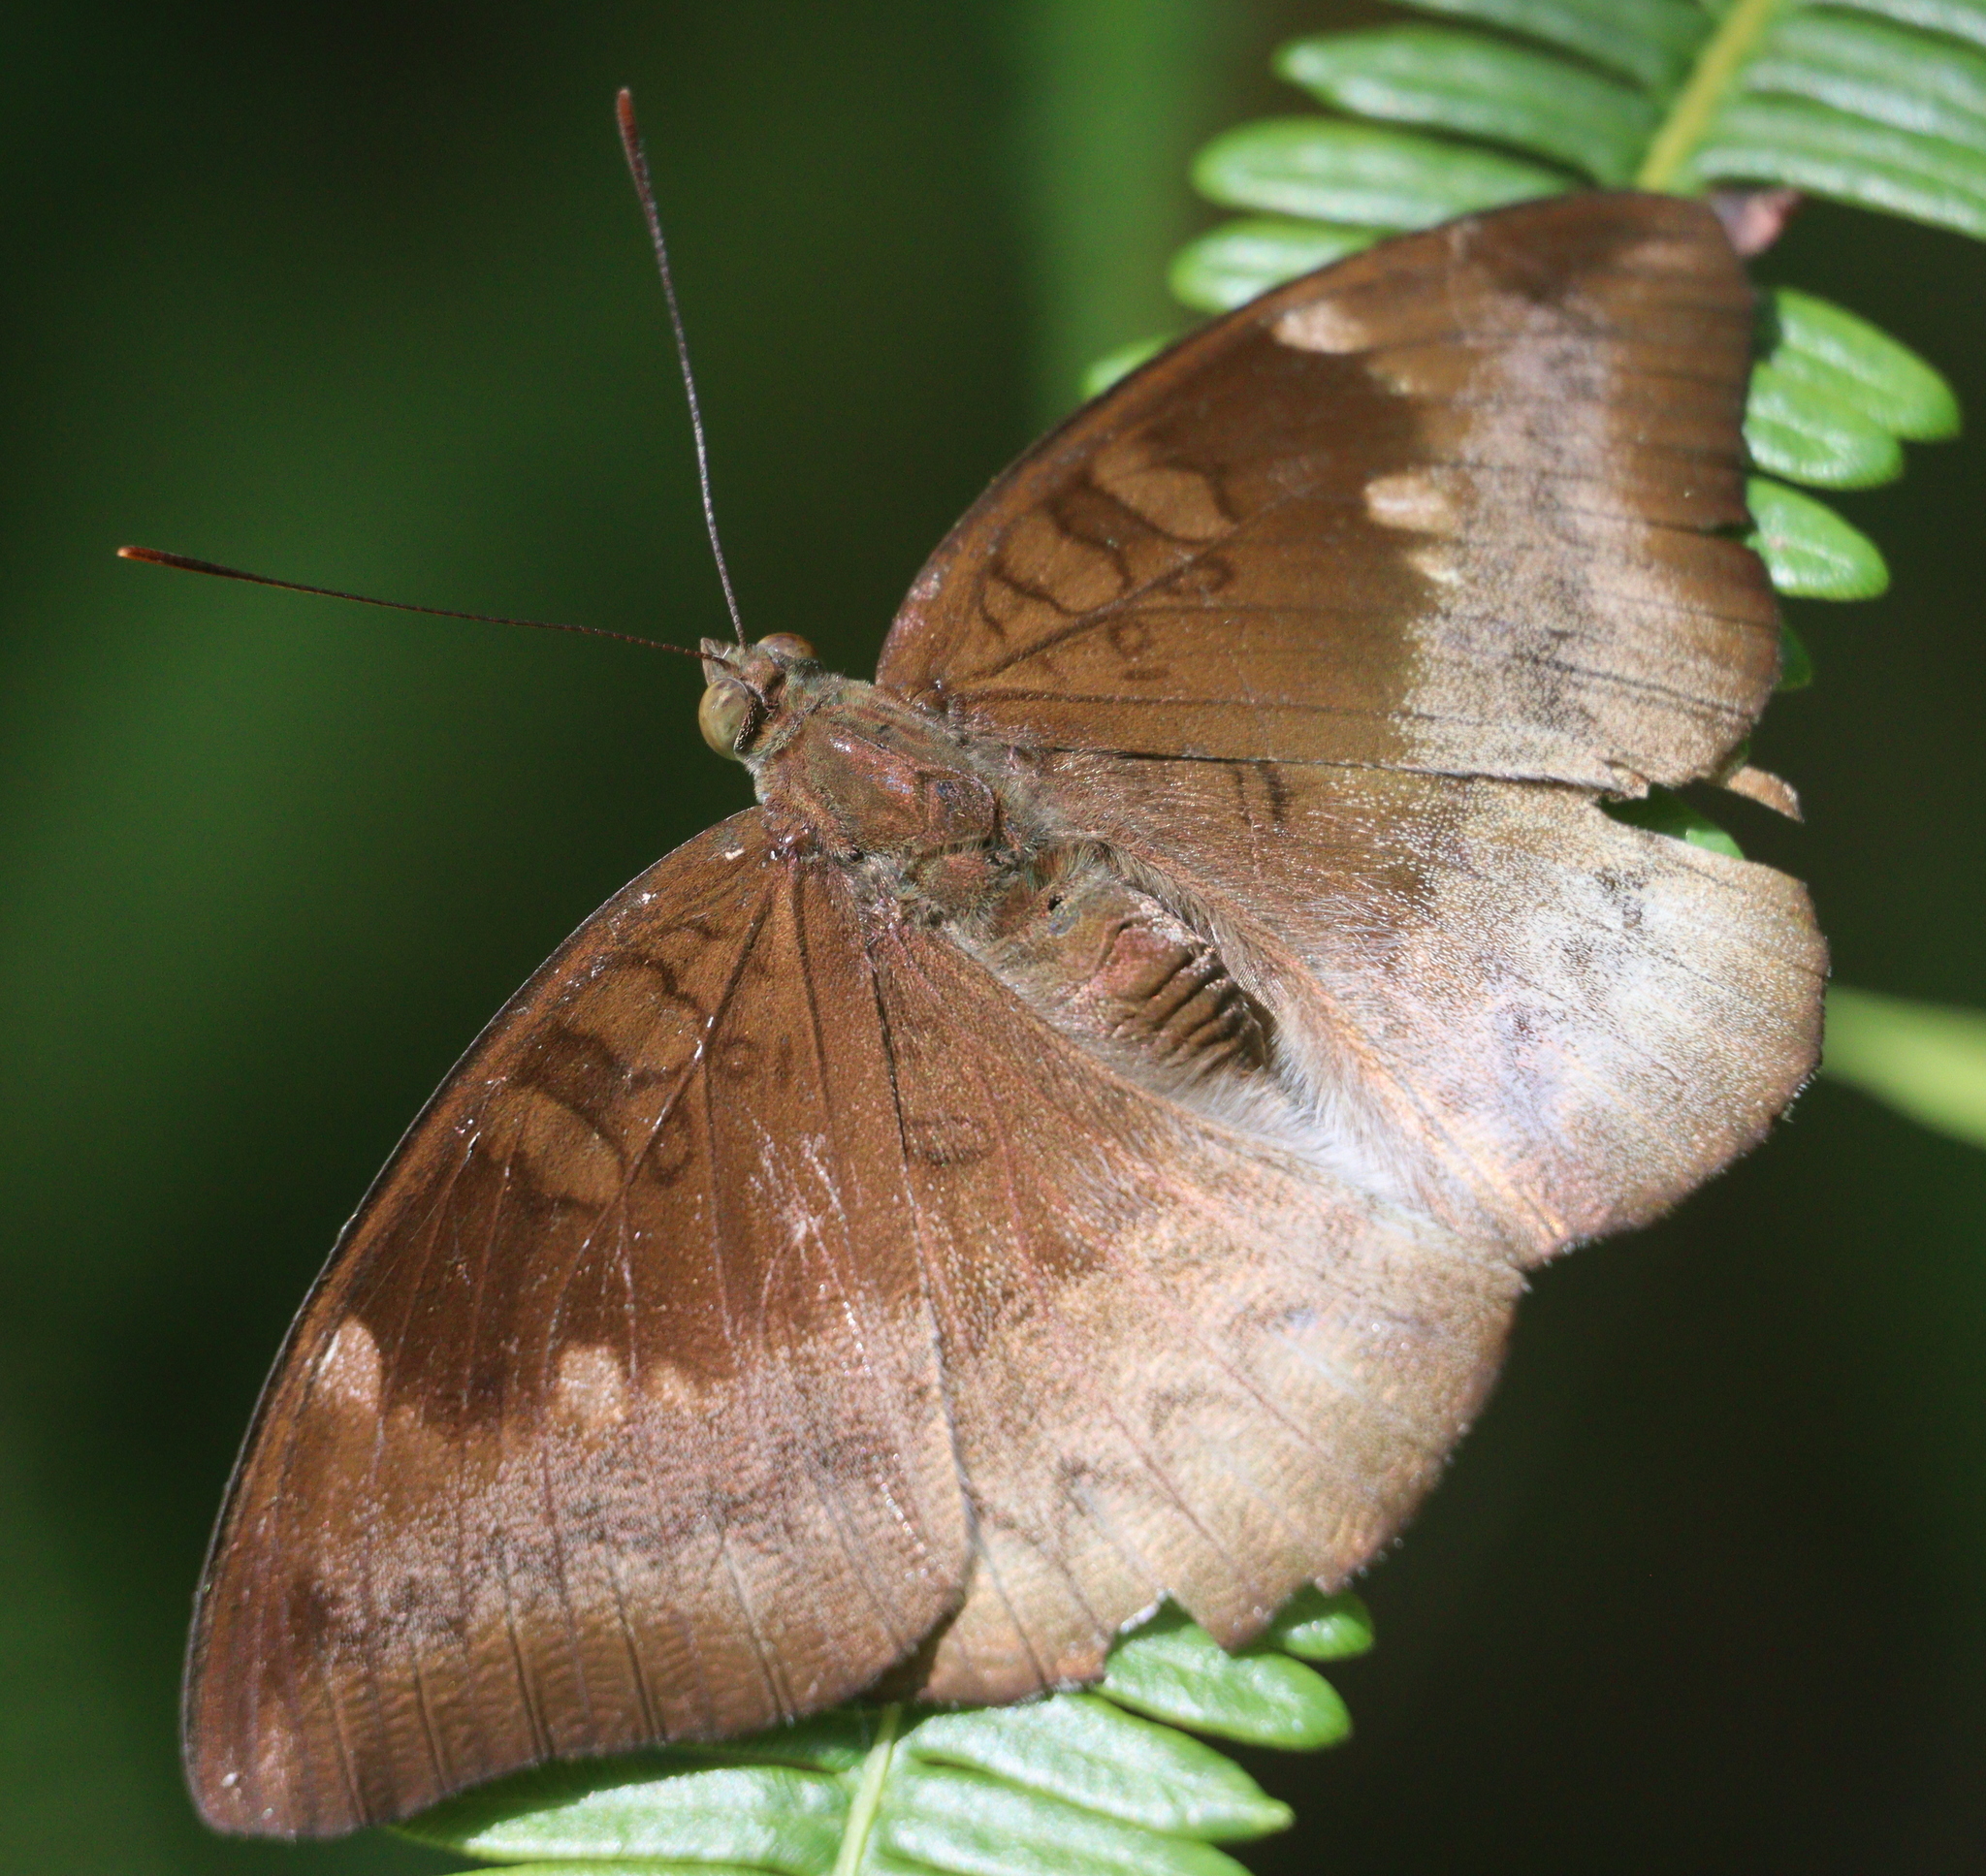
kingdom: Animalia
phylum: Arthropoda
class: Insecta
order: Lepidoptera
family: Nymphalidae
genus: Euthalia
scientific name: Euthalia monina
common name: Powdered baron
